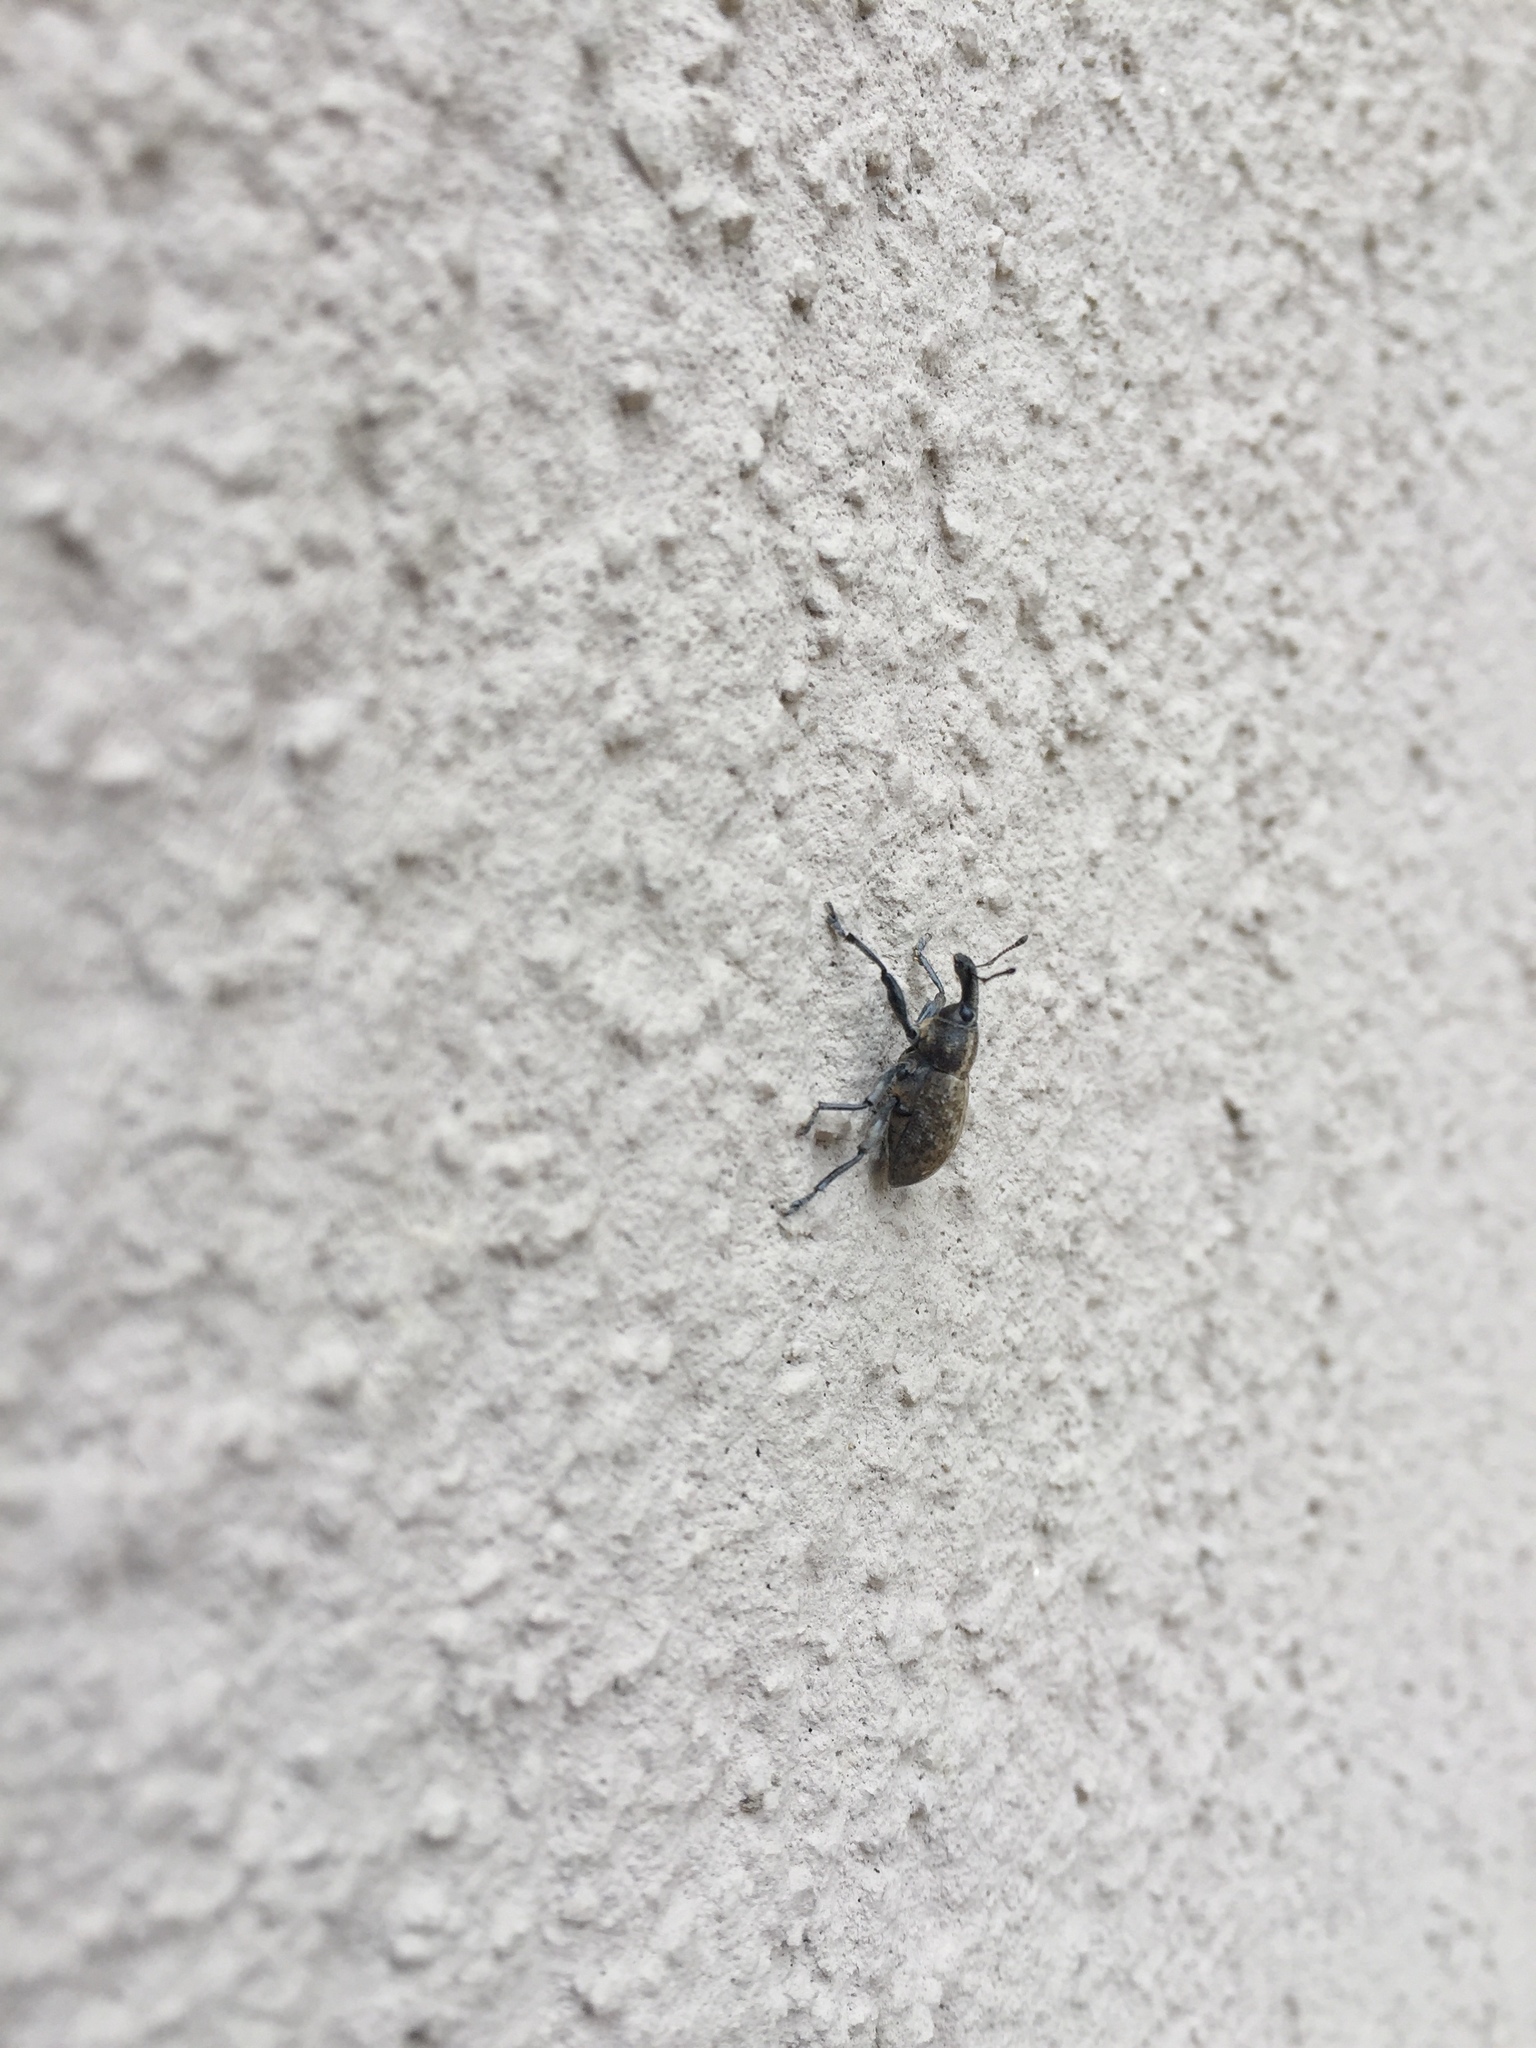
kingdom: Animalia
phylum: Arthropoda
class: Insecta
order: Coleoptera
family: Curculionidae
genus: Lepyrus
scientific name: Lepyrus capucinus
